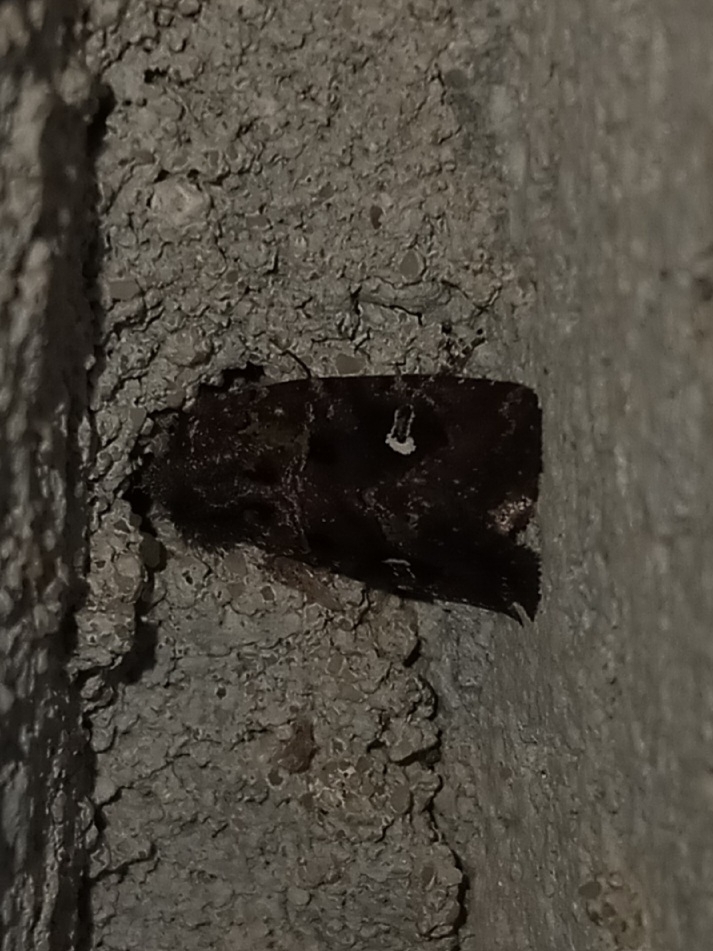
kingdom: Animalia
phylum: Arthropoda
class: Insecta
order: Lepidoptera
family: Noctuidae
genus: Lacinipolia
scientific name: Lacinipolia renigera
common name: Kidney-spotted minor
